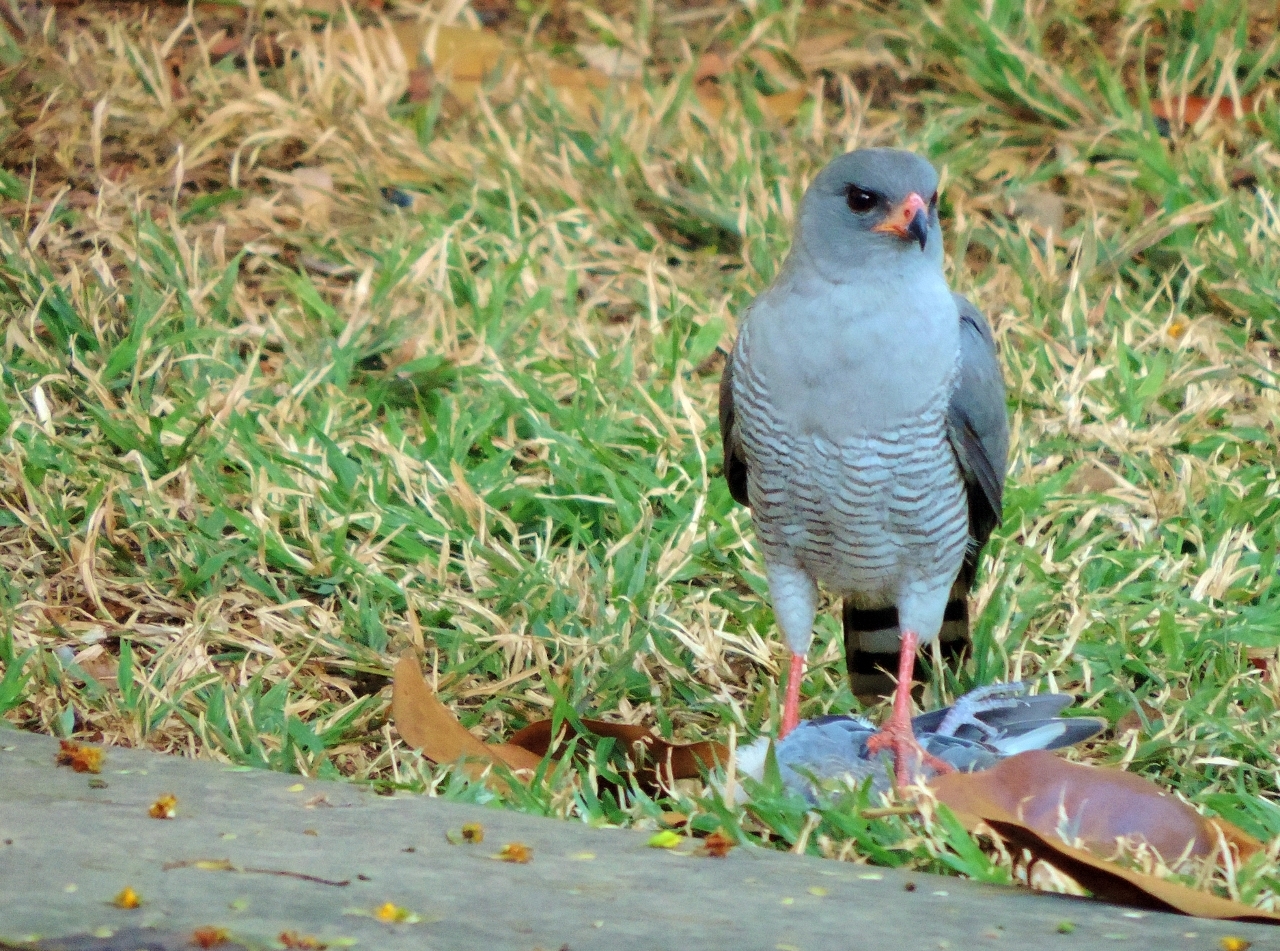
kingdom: Animalia
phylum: Chordata
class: Aves
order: Columbiformes
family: Columbidae
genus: Spilopelia
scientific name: Spilopelia senegalensis
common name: Laughing dove
